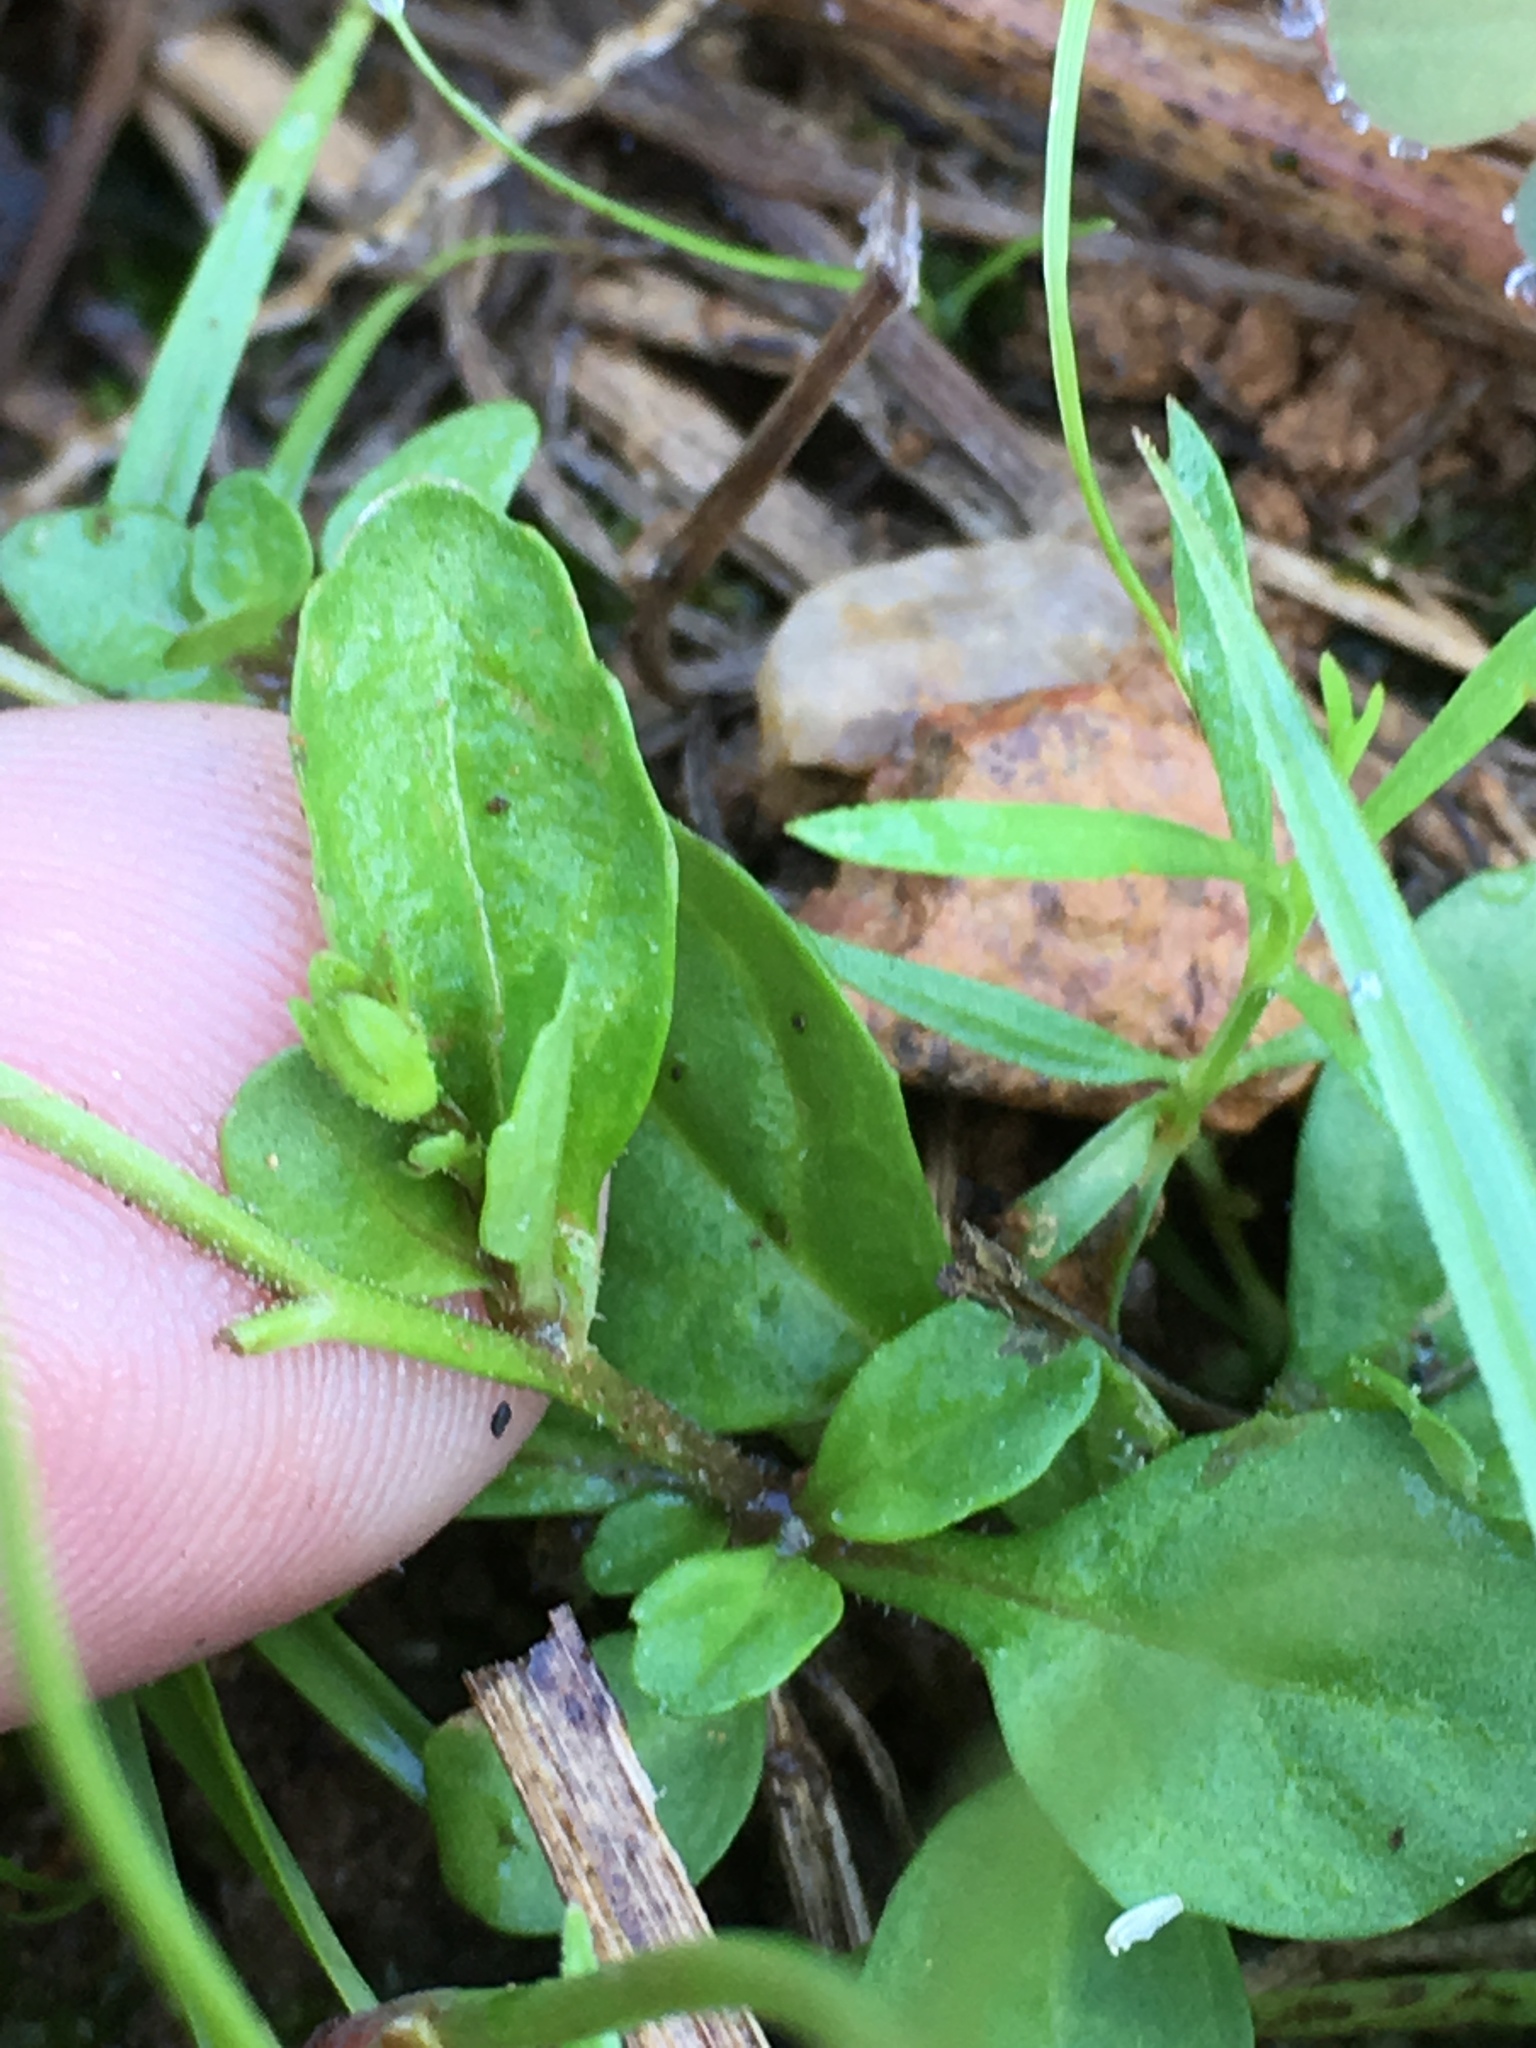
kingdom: Plantae
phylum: Tracheophyta
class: Magnoliopsida
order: Lamiales
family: Mazaceae
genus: Mazus
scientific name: Mazus pumilus
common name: Japanese mazus
